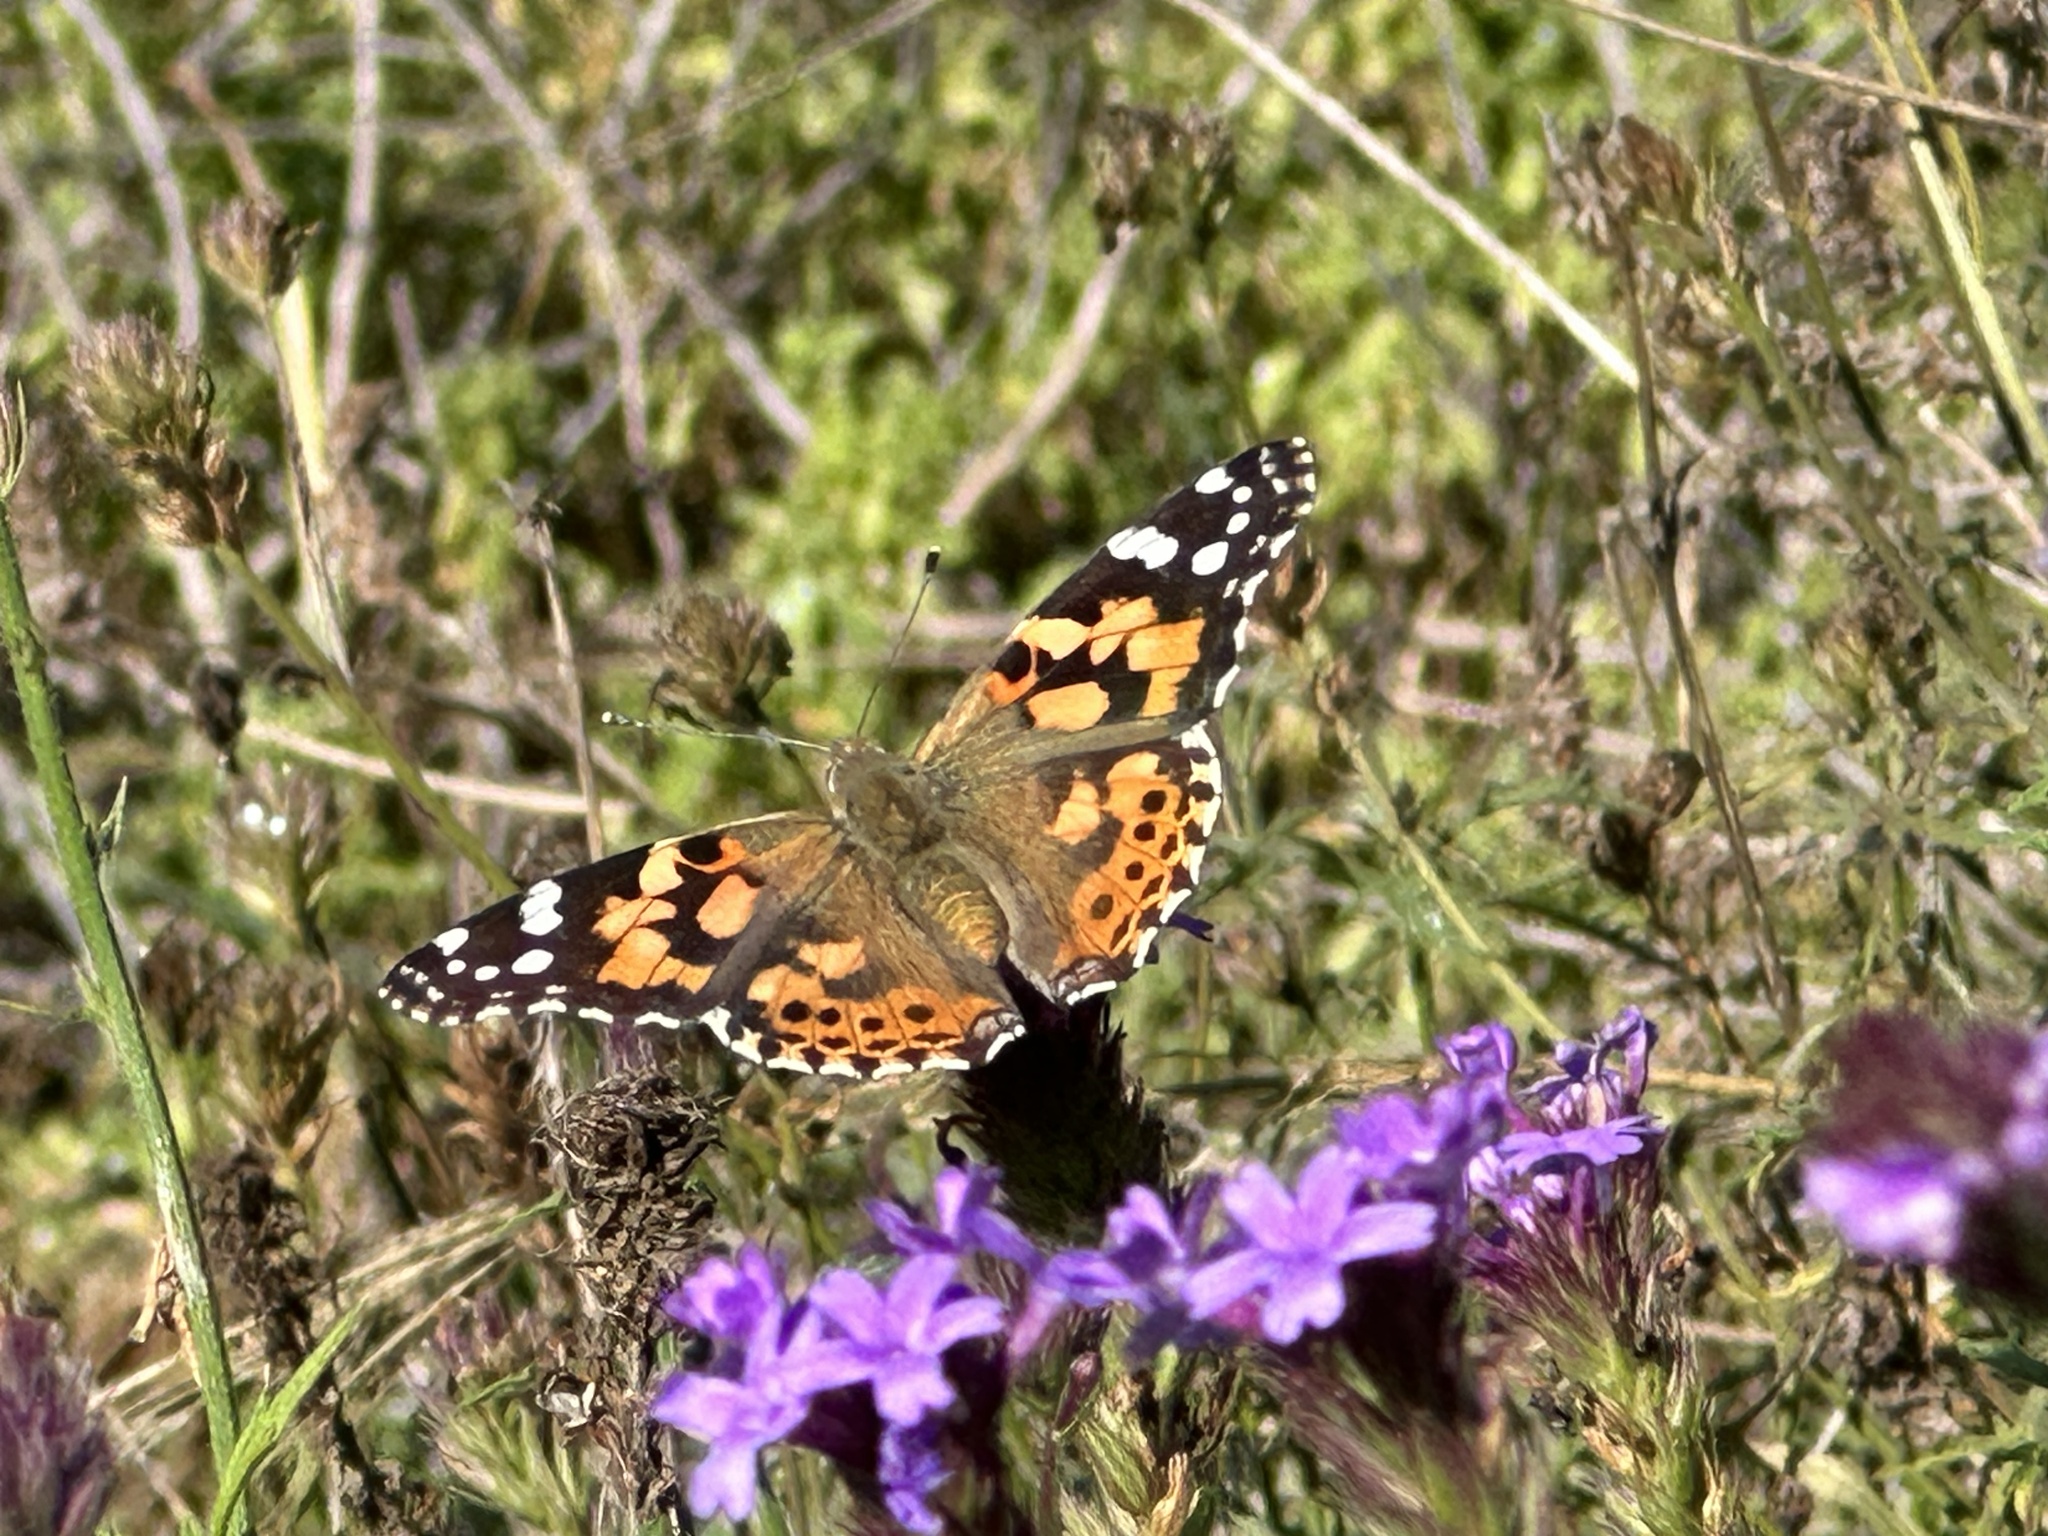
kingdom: Animalia
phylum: Arthropoda
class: Insecta
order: Lepidoptera
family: Nymphalidae
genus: Vanessa
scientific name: Vanessa cardui
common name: Painted lady
